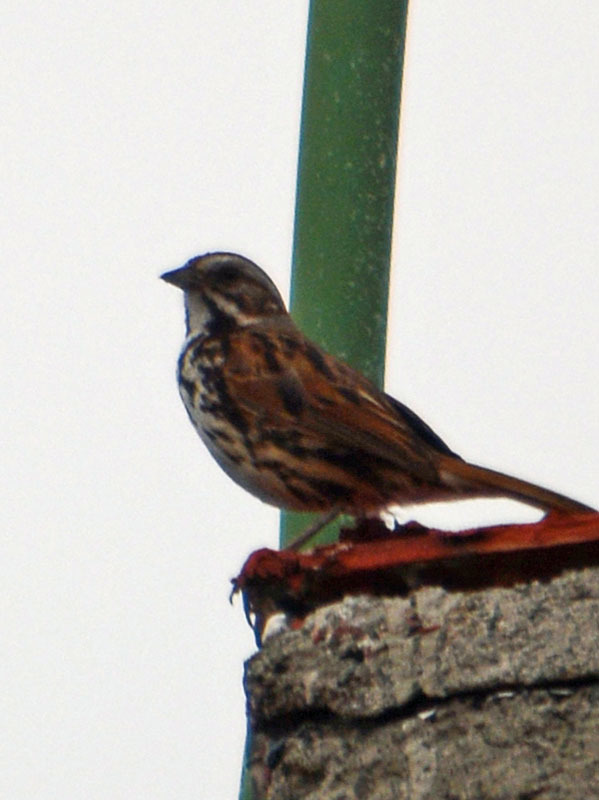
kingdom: Animalia
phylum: Chordata
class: Aves
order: Passeriformes
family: Passerellidae
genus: Melospiza
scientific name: Melospiza melodia
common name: Song sparrow
